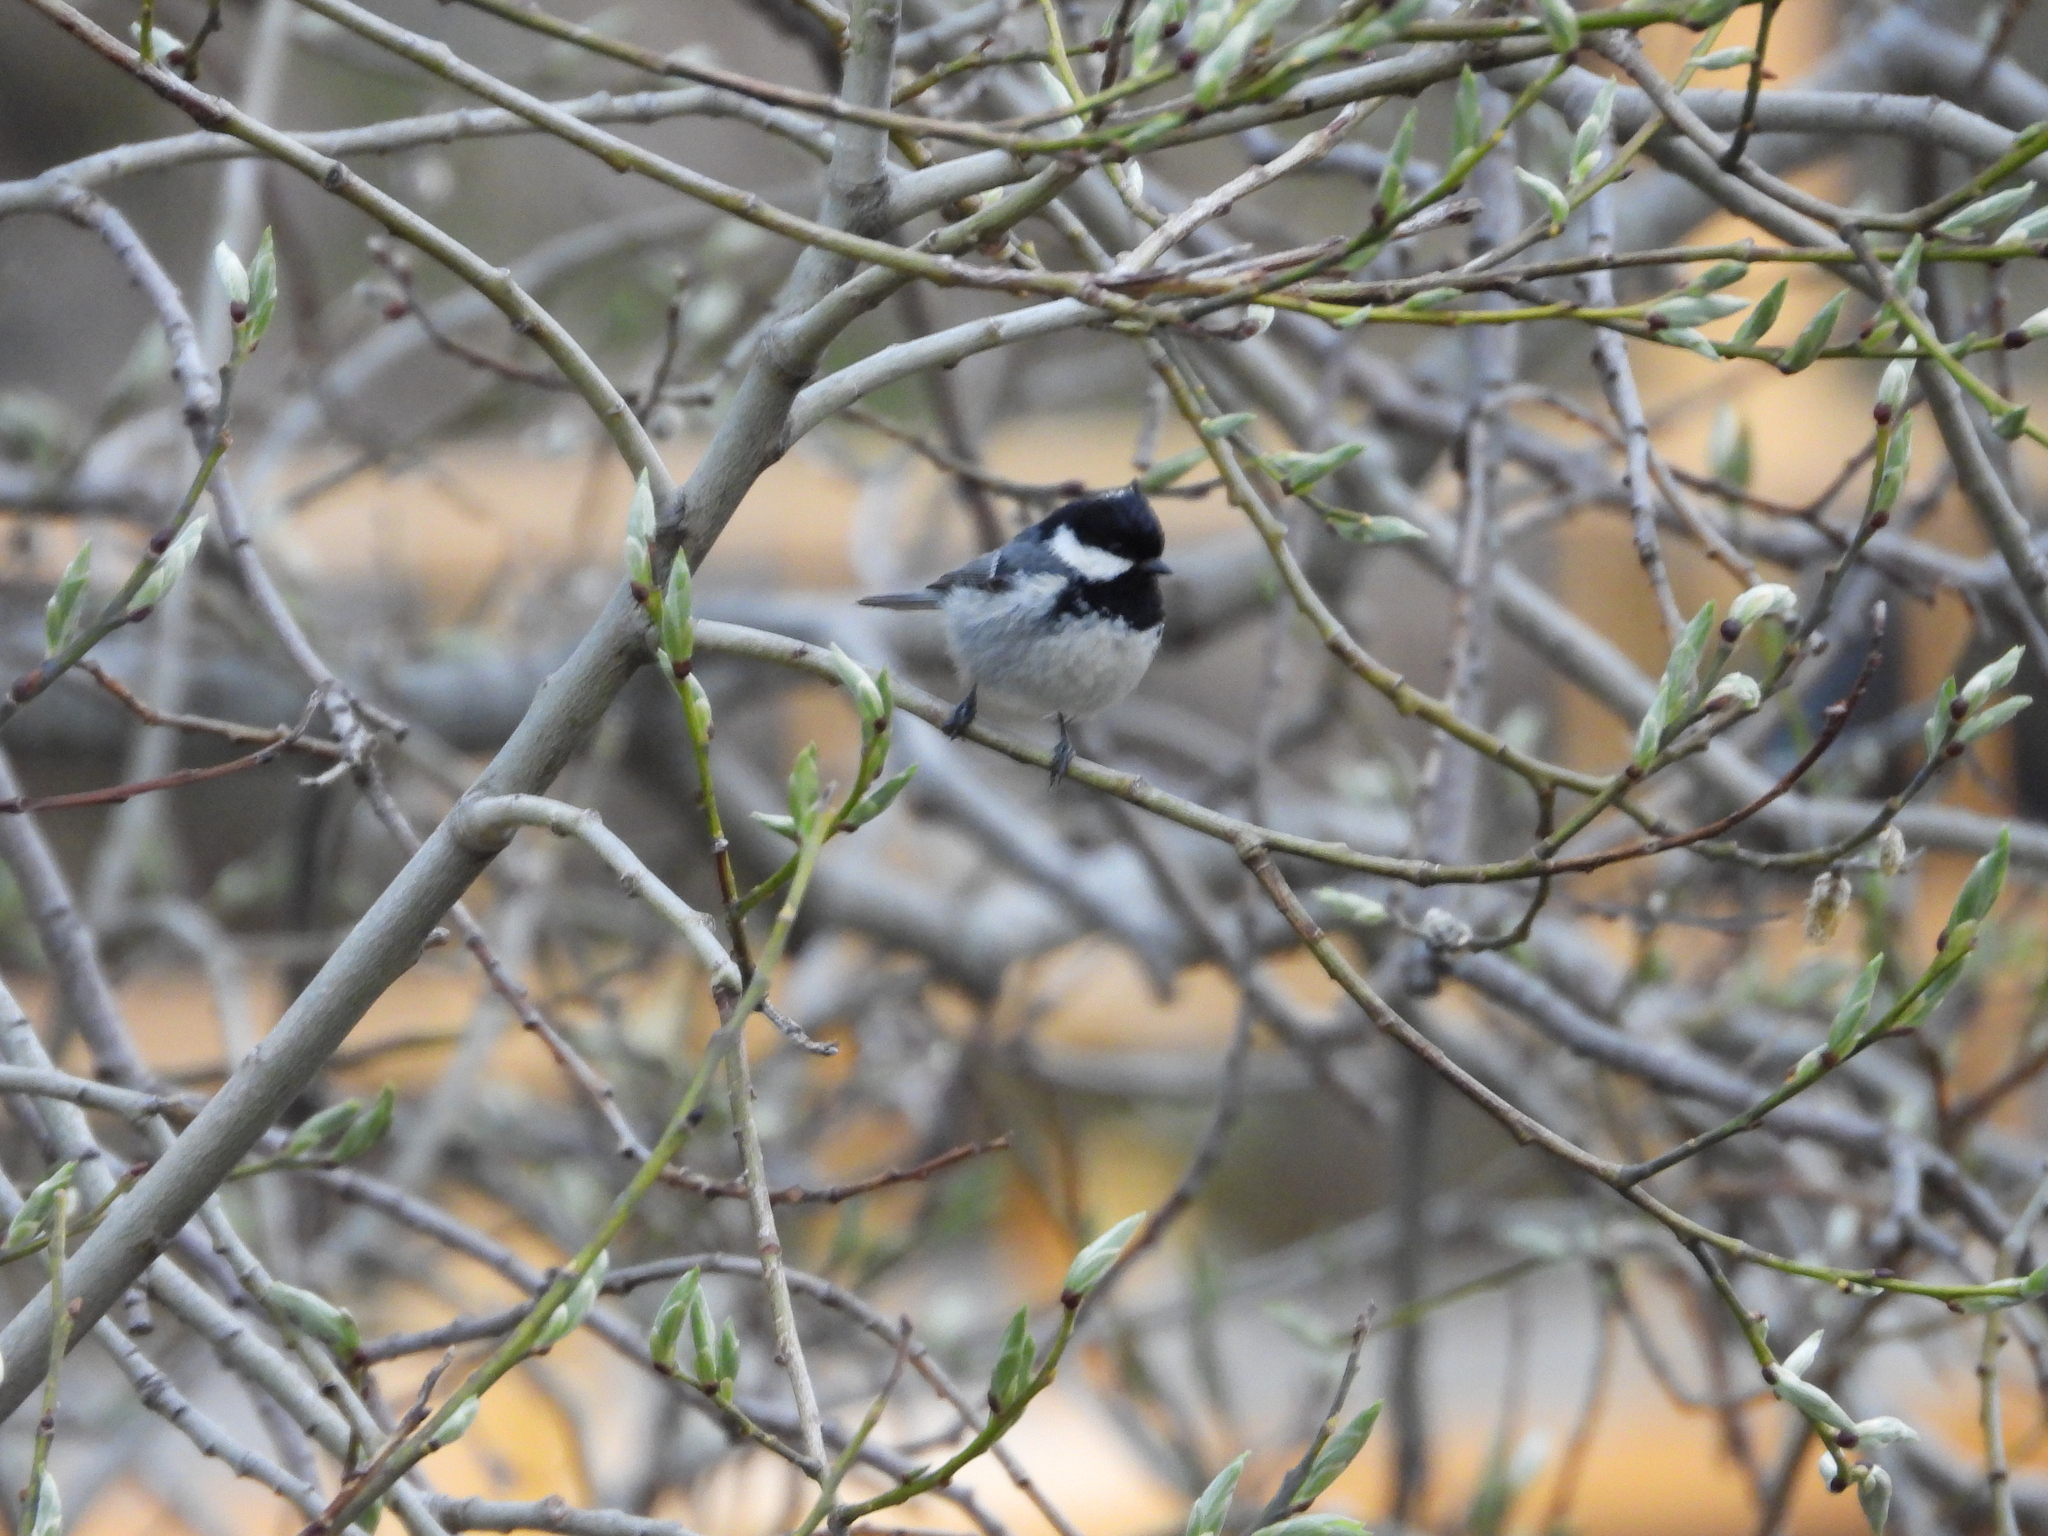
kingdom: Animalia
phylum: Chordata
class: Aves
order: Passeriformes
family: Paridae
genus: Periparus
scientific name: Periparus ater
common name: Coal tit
